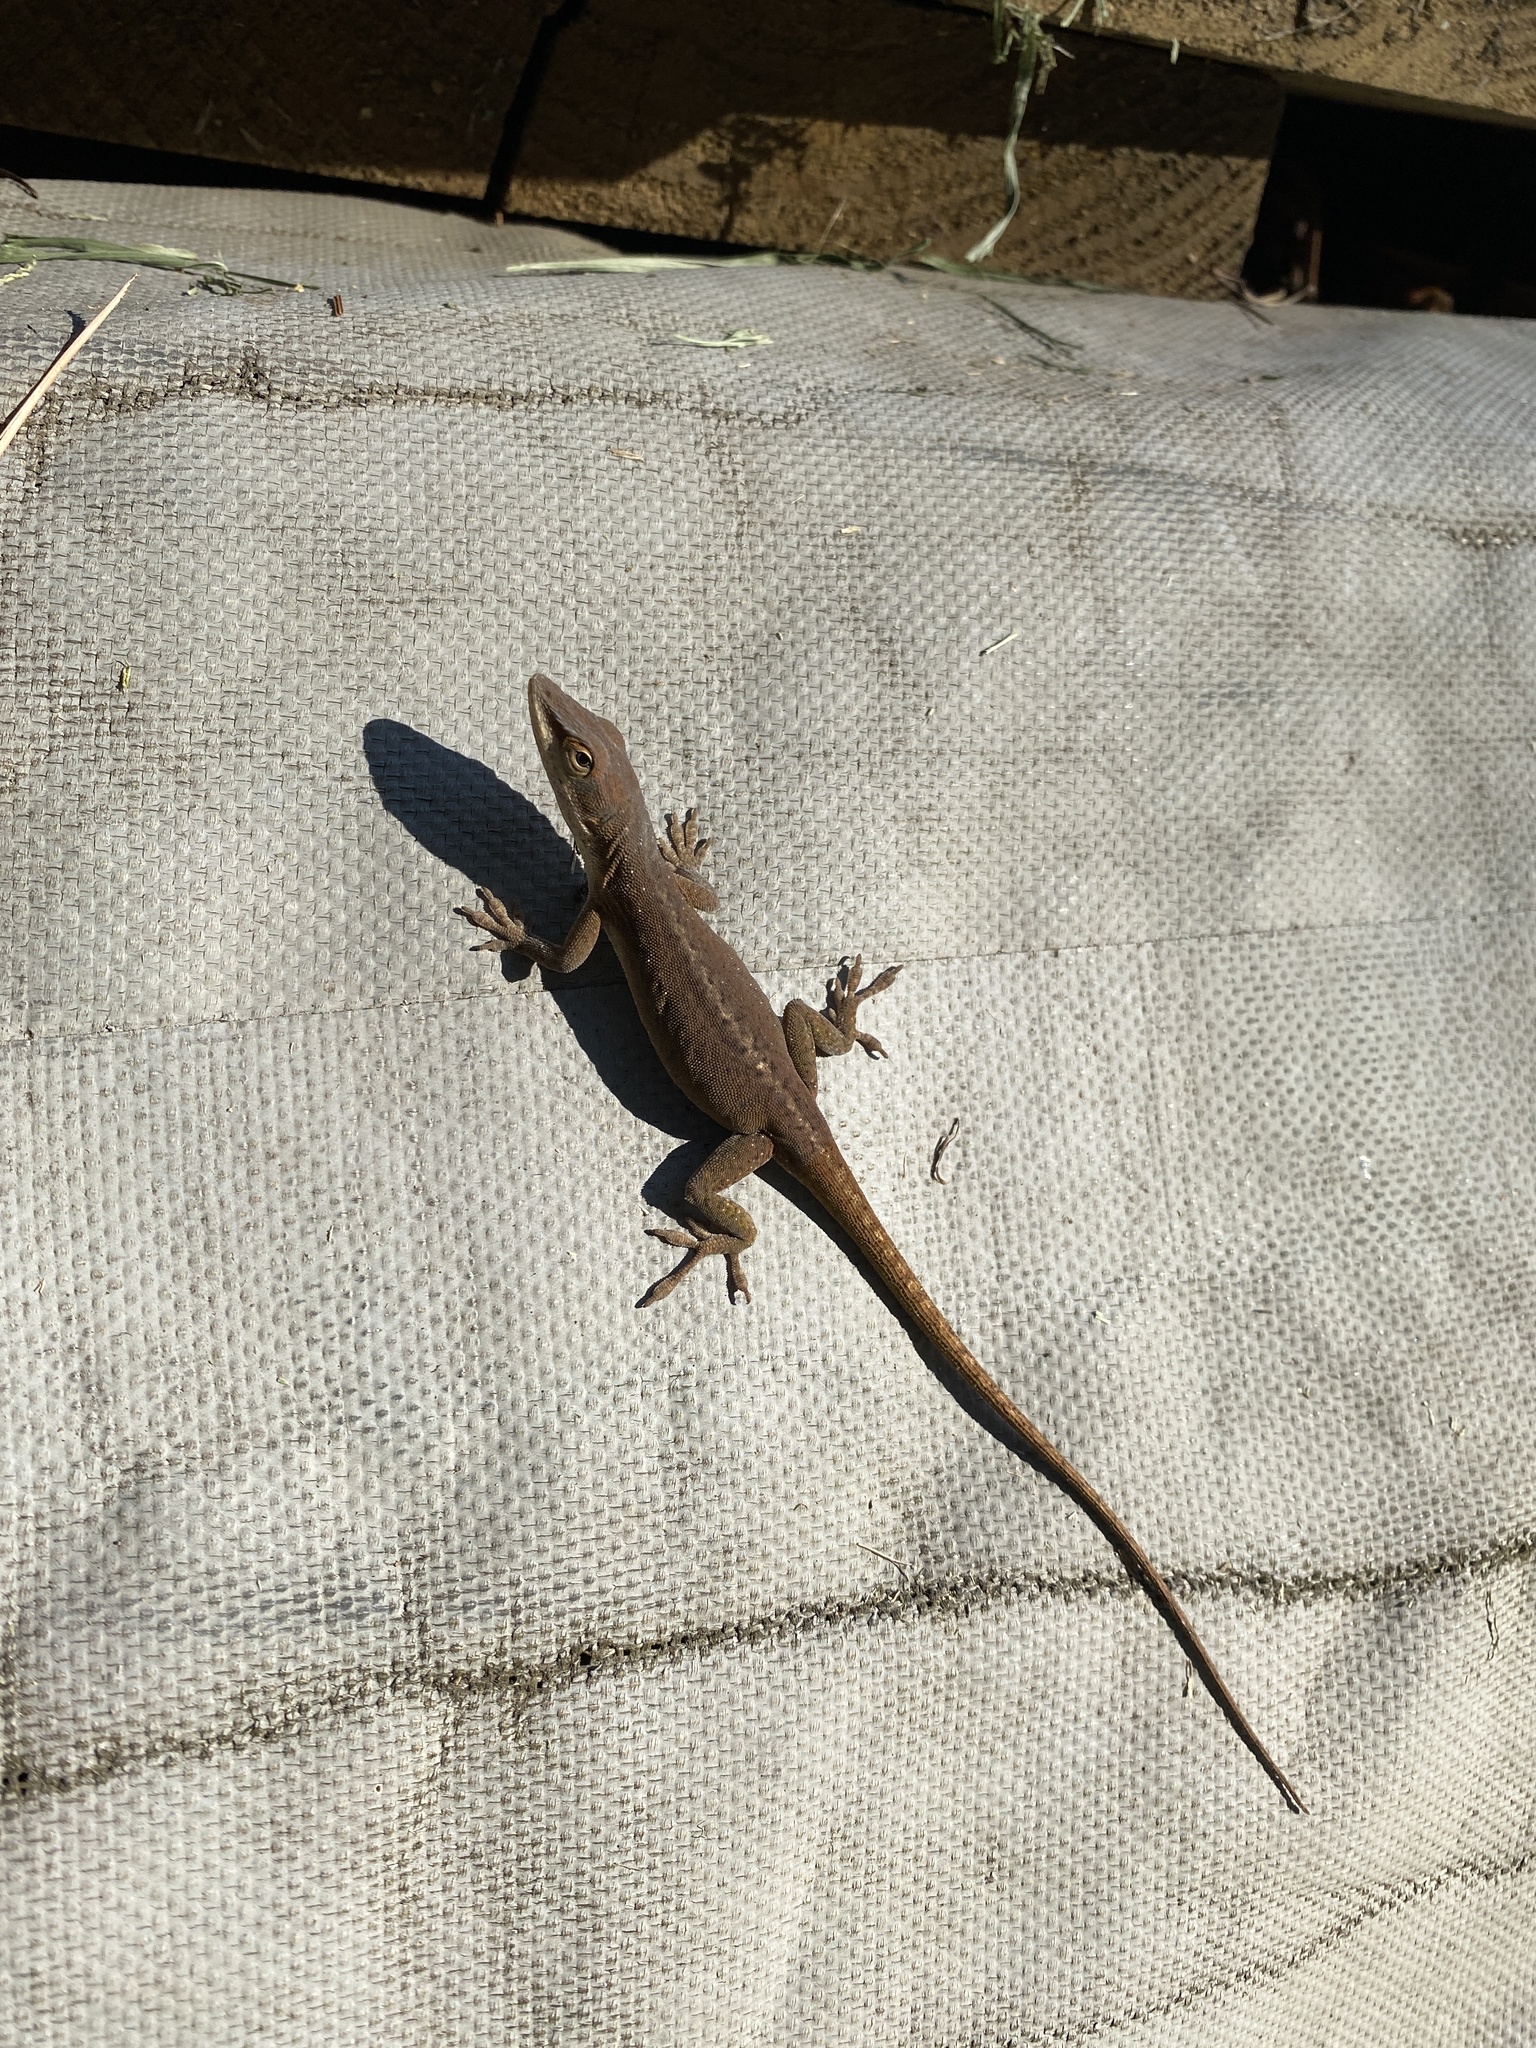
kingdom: Animalia
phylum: Chordata
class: Squamata
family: Dactyloidae
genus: Anolis
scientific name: Anolis carolinensis
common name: Green anole
